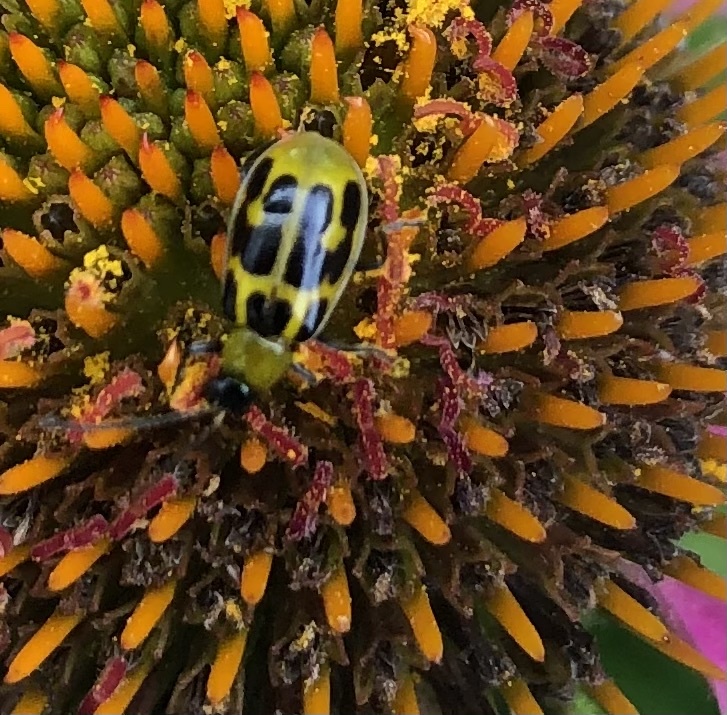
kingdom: Animalia
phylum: Arthropoda
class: Insecta
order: Coleoptera
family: Chrysomelidae
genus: Diabrotica
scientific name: Diabrotica undecimpunctata
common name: Spotted cucumber beetle
